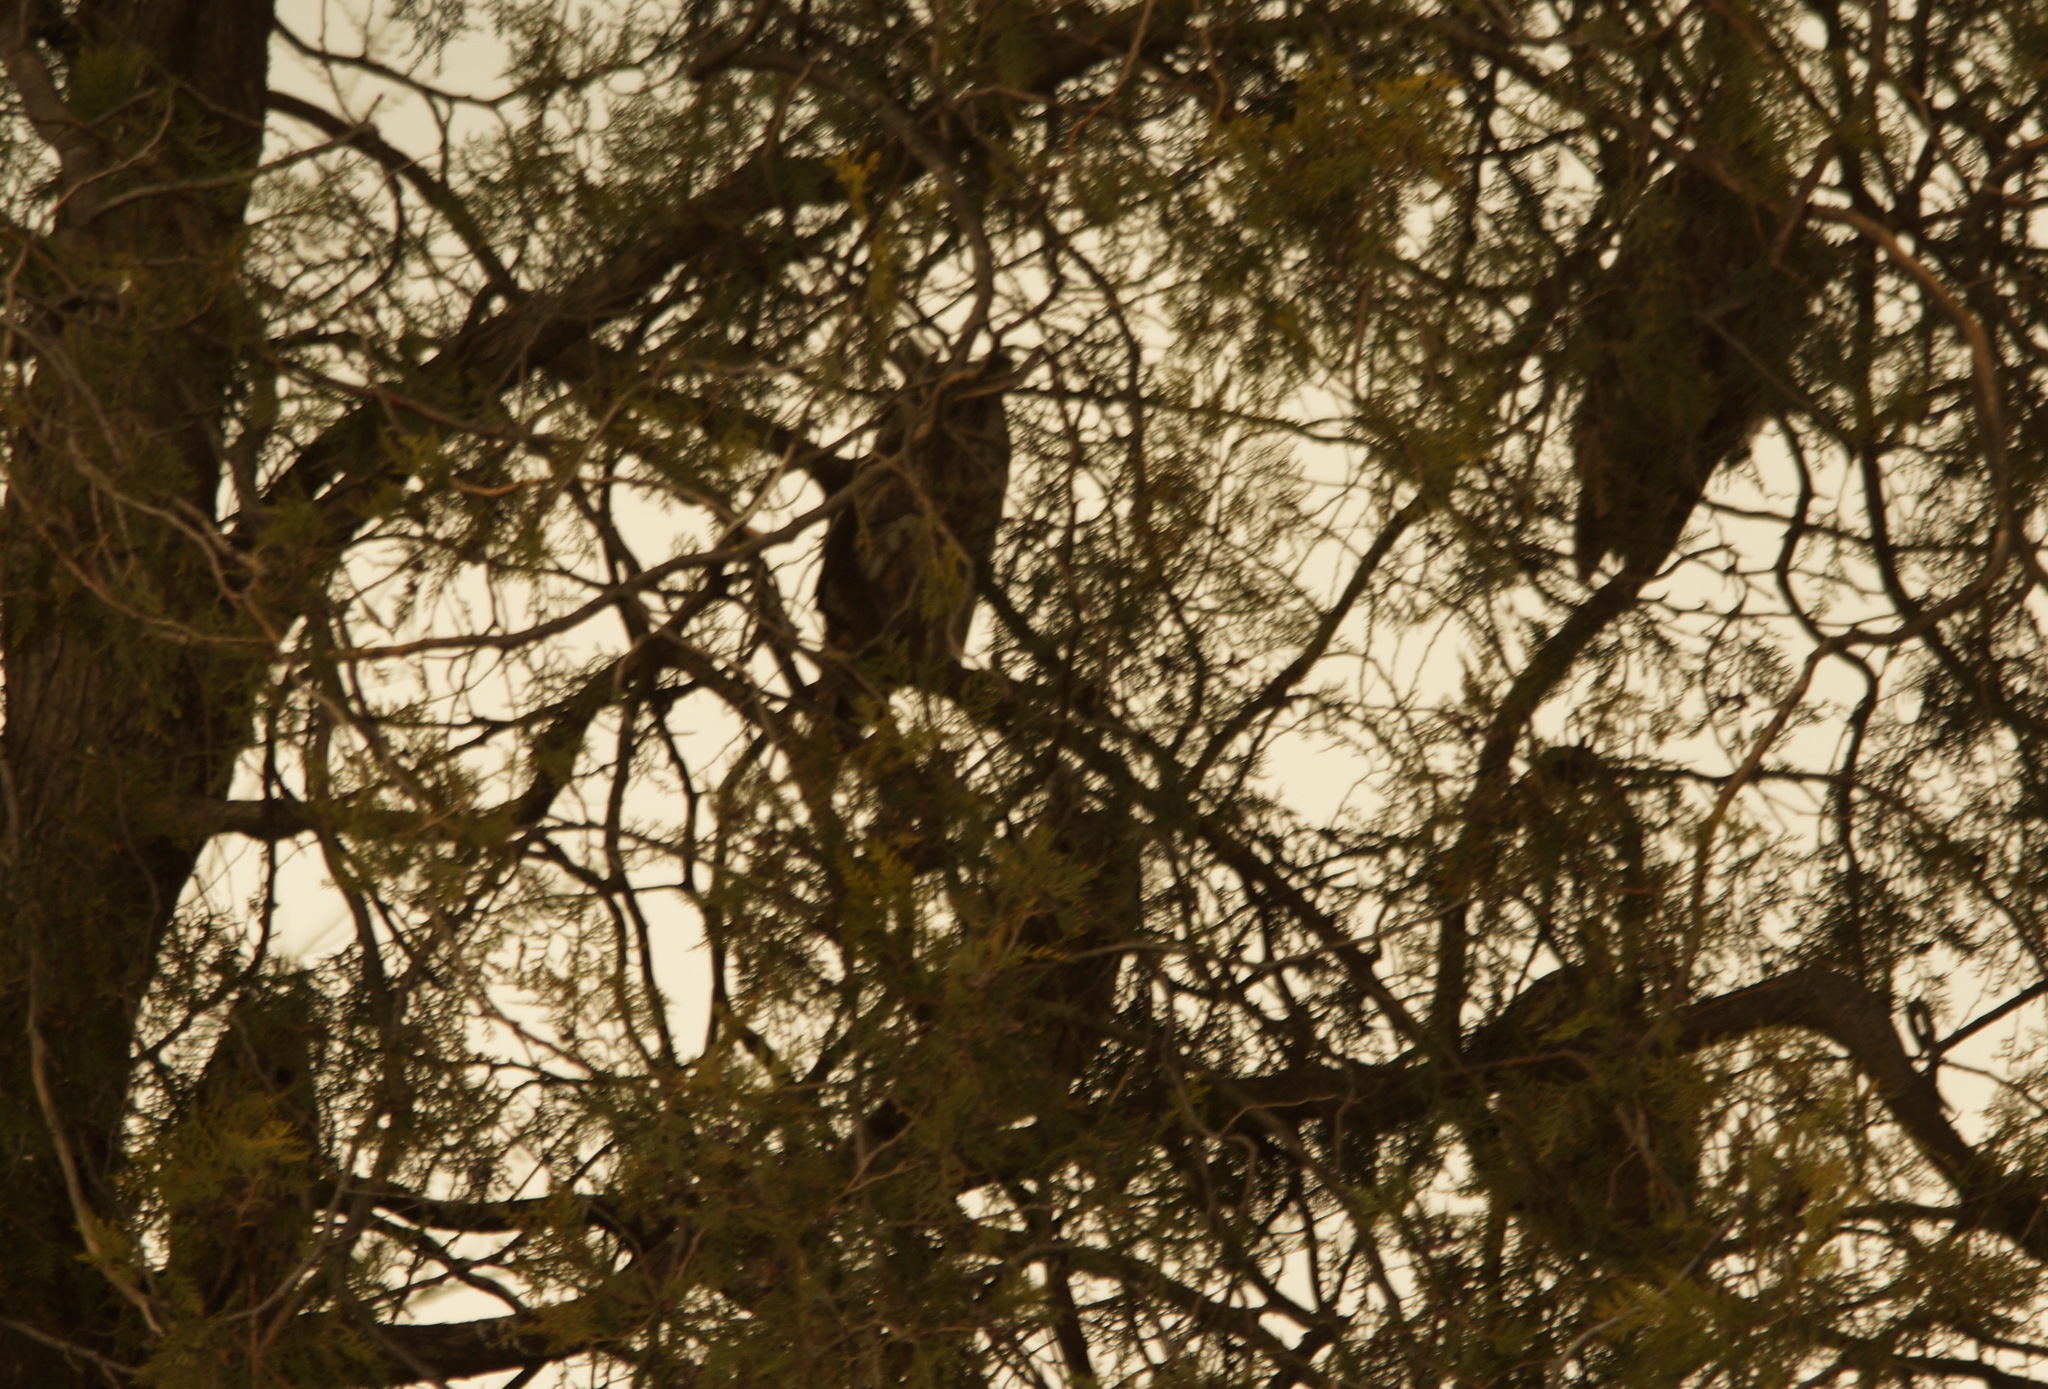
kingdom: Animalia
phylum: Chordata
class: Aves
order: Strigiformes
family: Strigidae
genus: Asio
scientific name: Asio otus
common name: Long-eared owl
